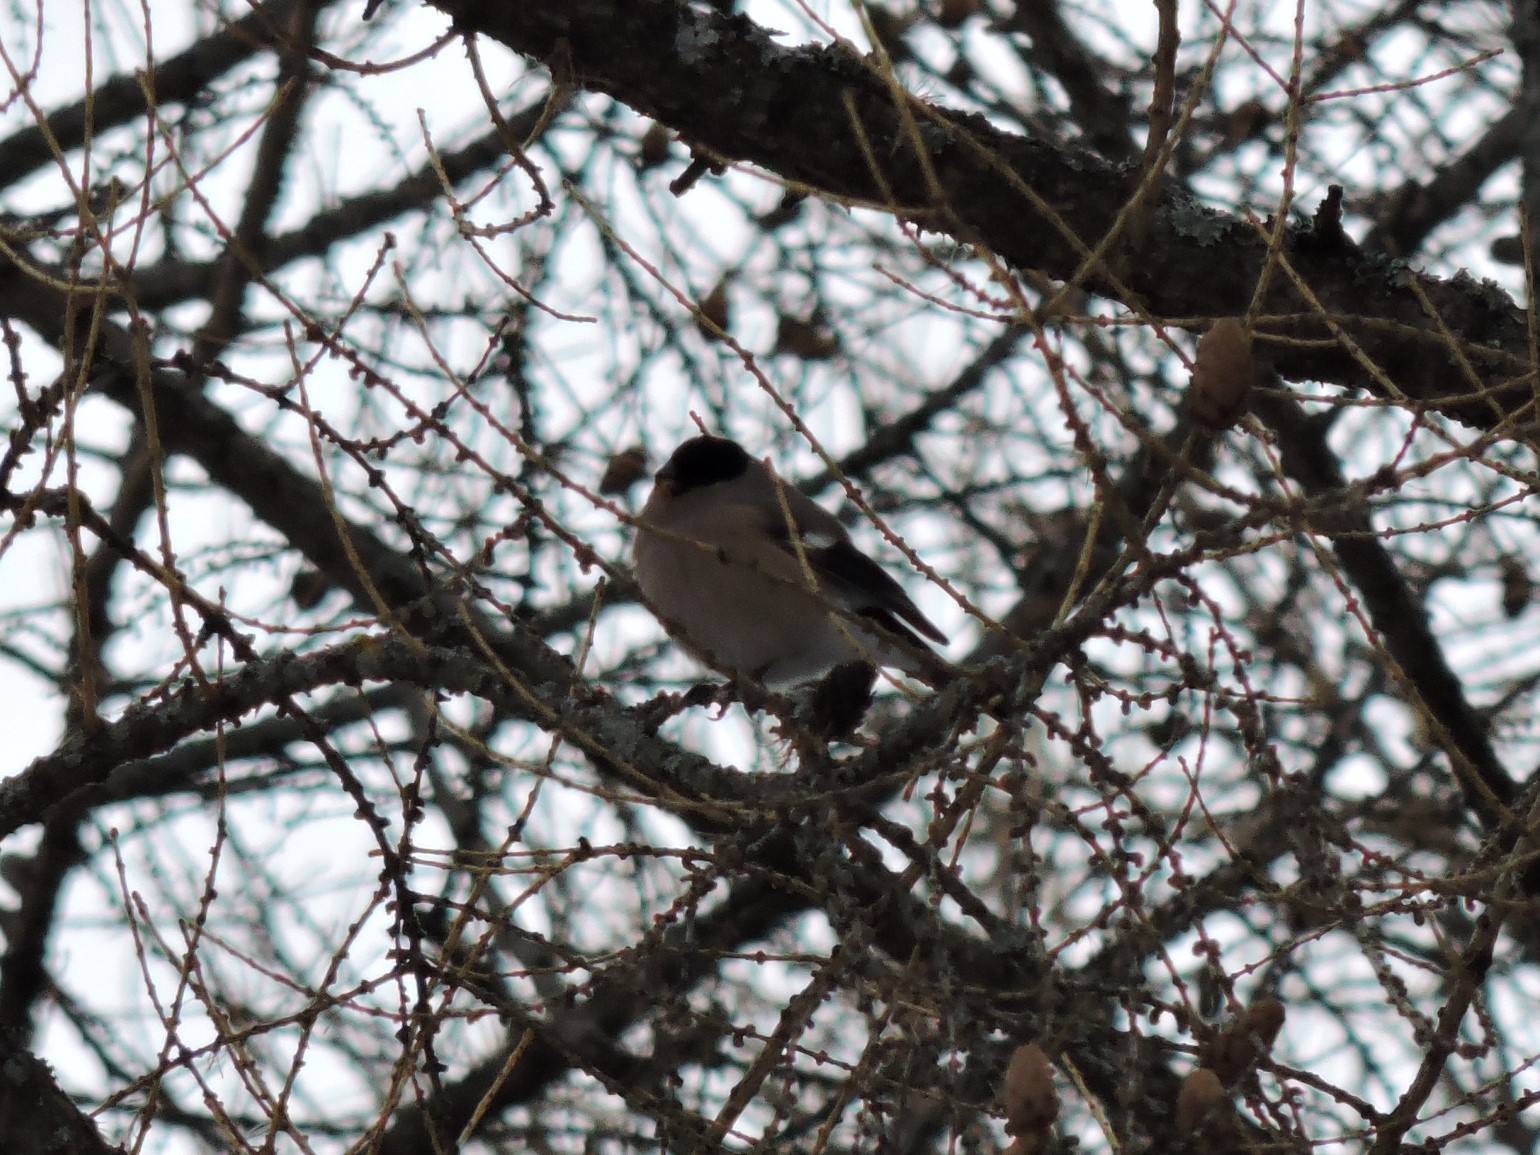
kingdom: Animalia
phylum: Chordata
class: Aves
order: Passeriformes
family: Fringillidae
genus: Pyrrhula
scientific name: Pyrrhula pyrrhula
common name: Eurasian bullfinch
